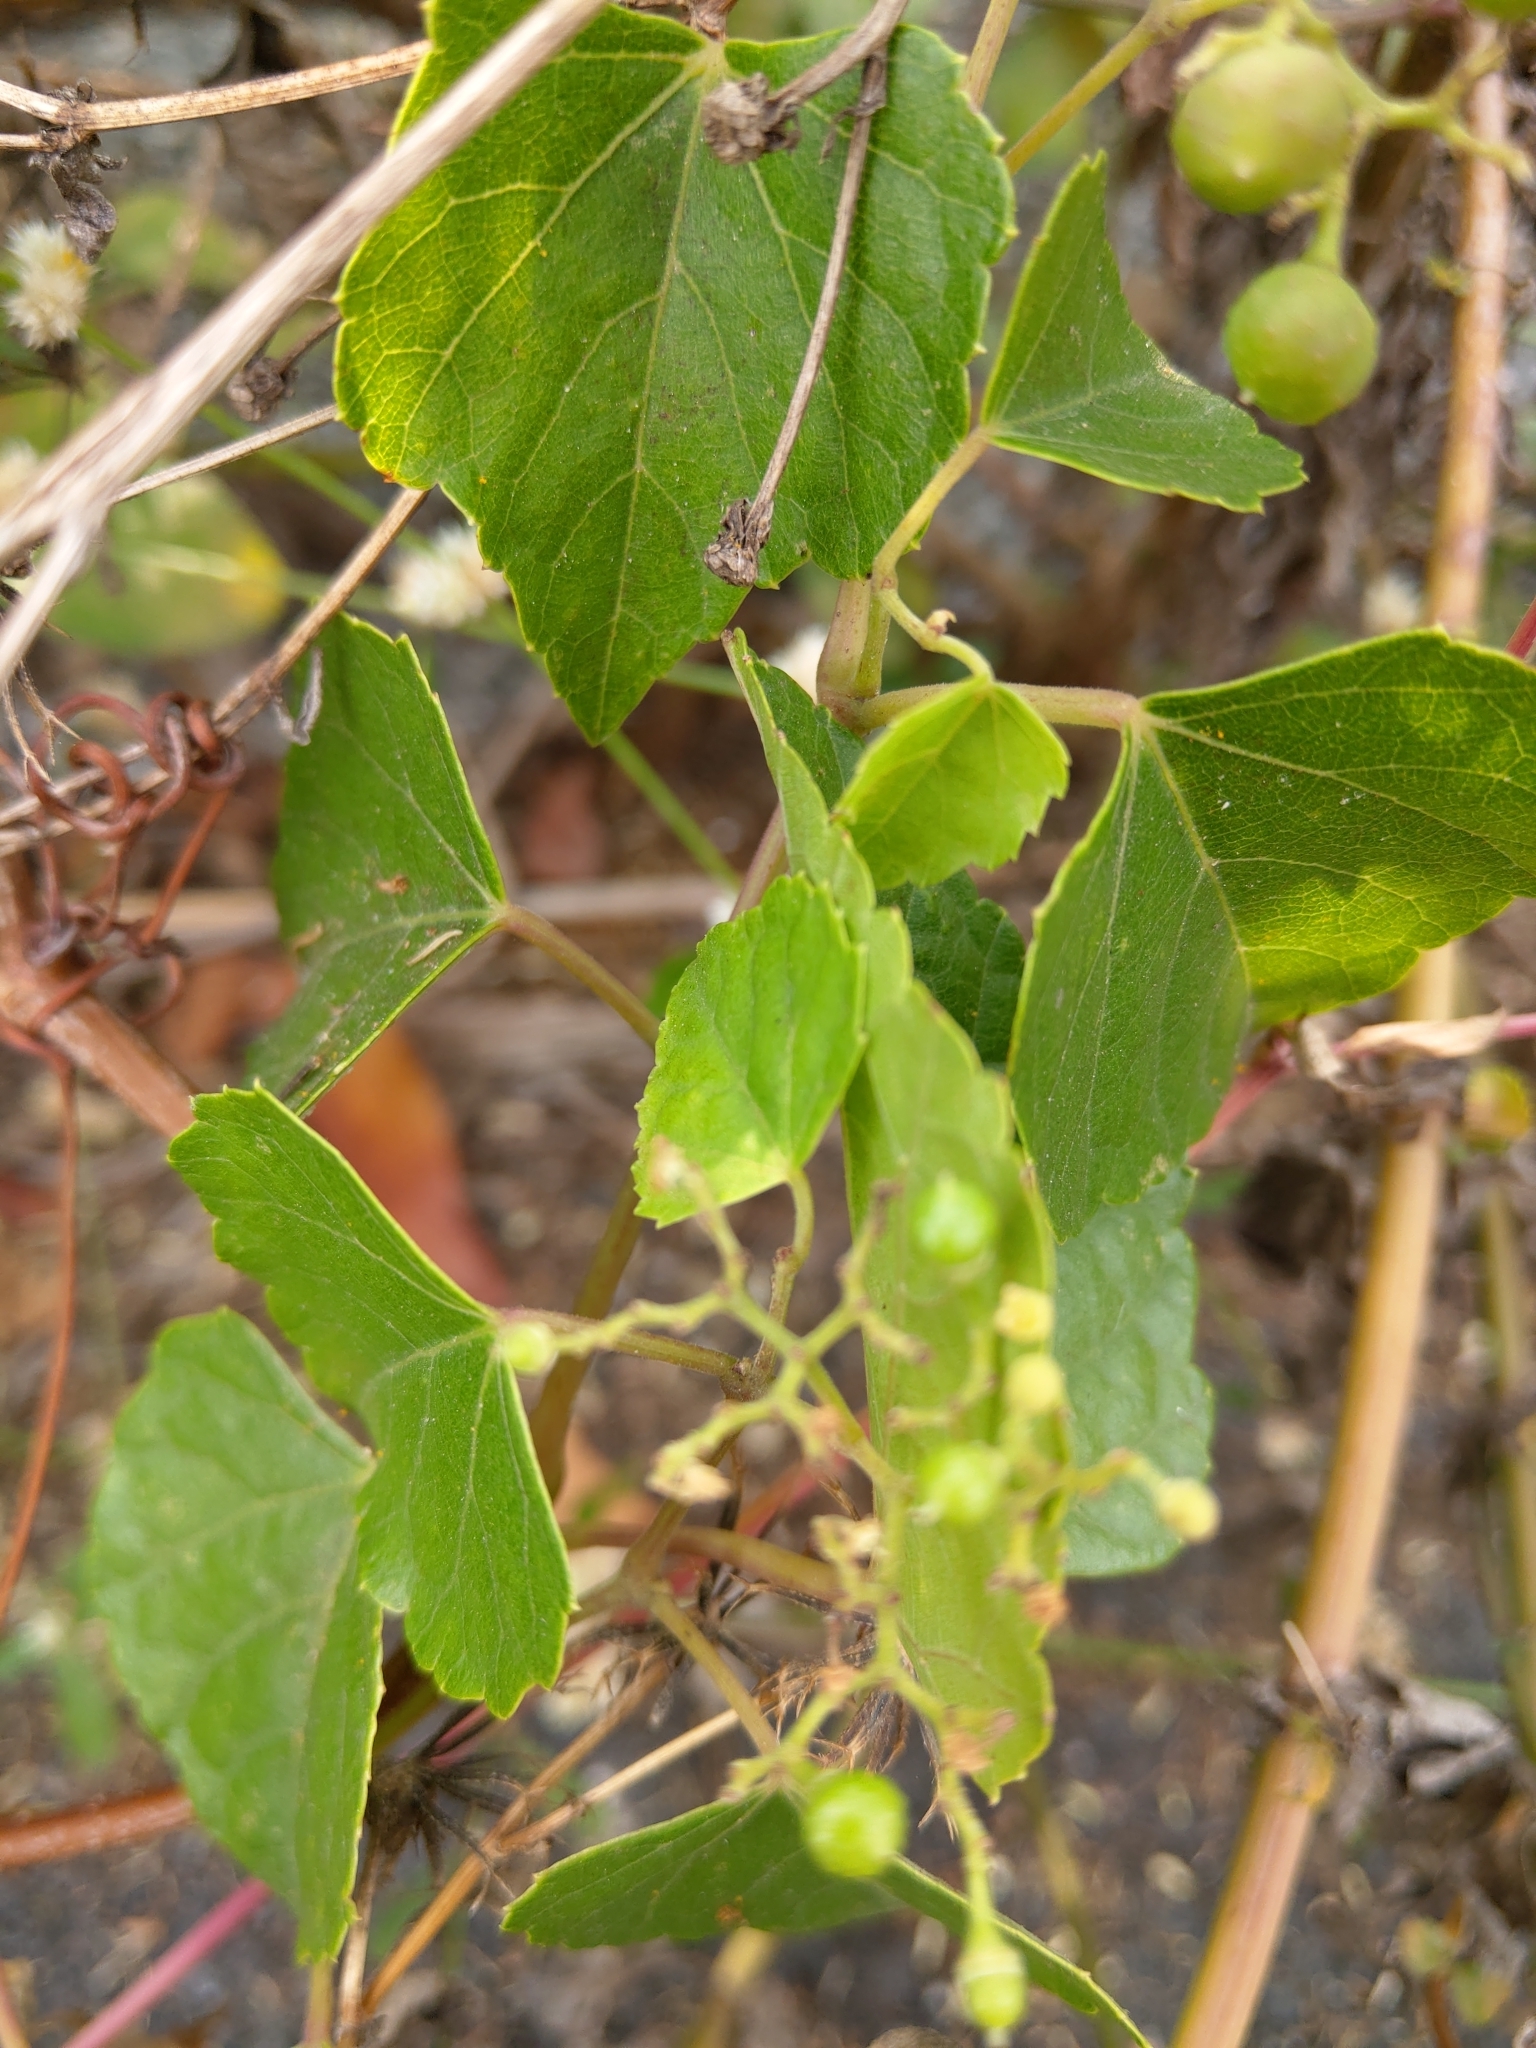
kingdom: Plantae
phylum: Tracheophyta
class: Magnoliopsida
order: Vitales
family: Vitaceae
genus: Ampelopsis
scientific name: Ampelopsis glandulosa
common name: Amur peppervine
